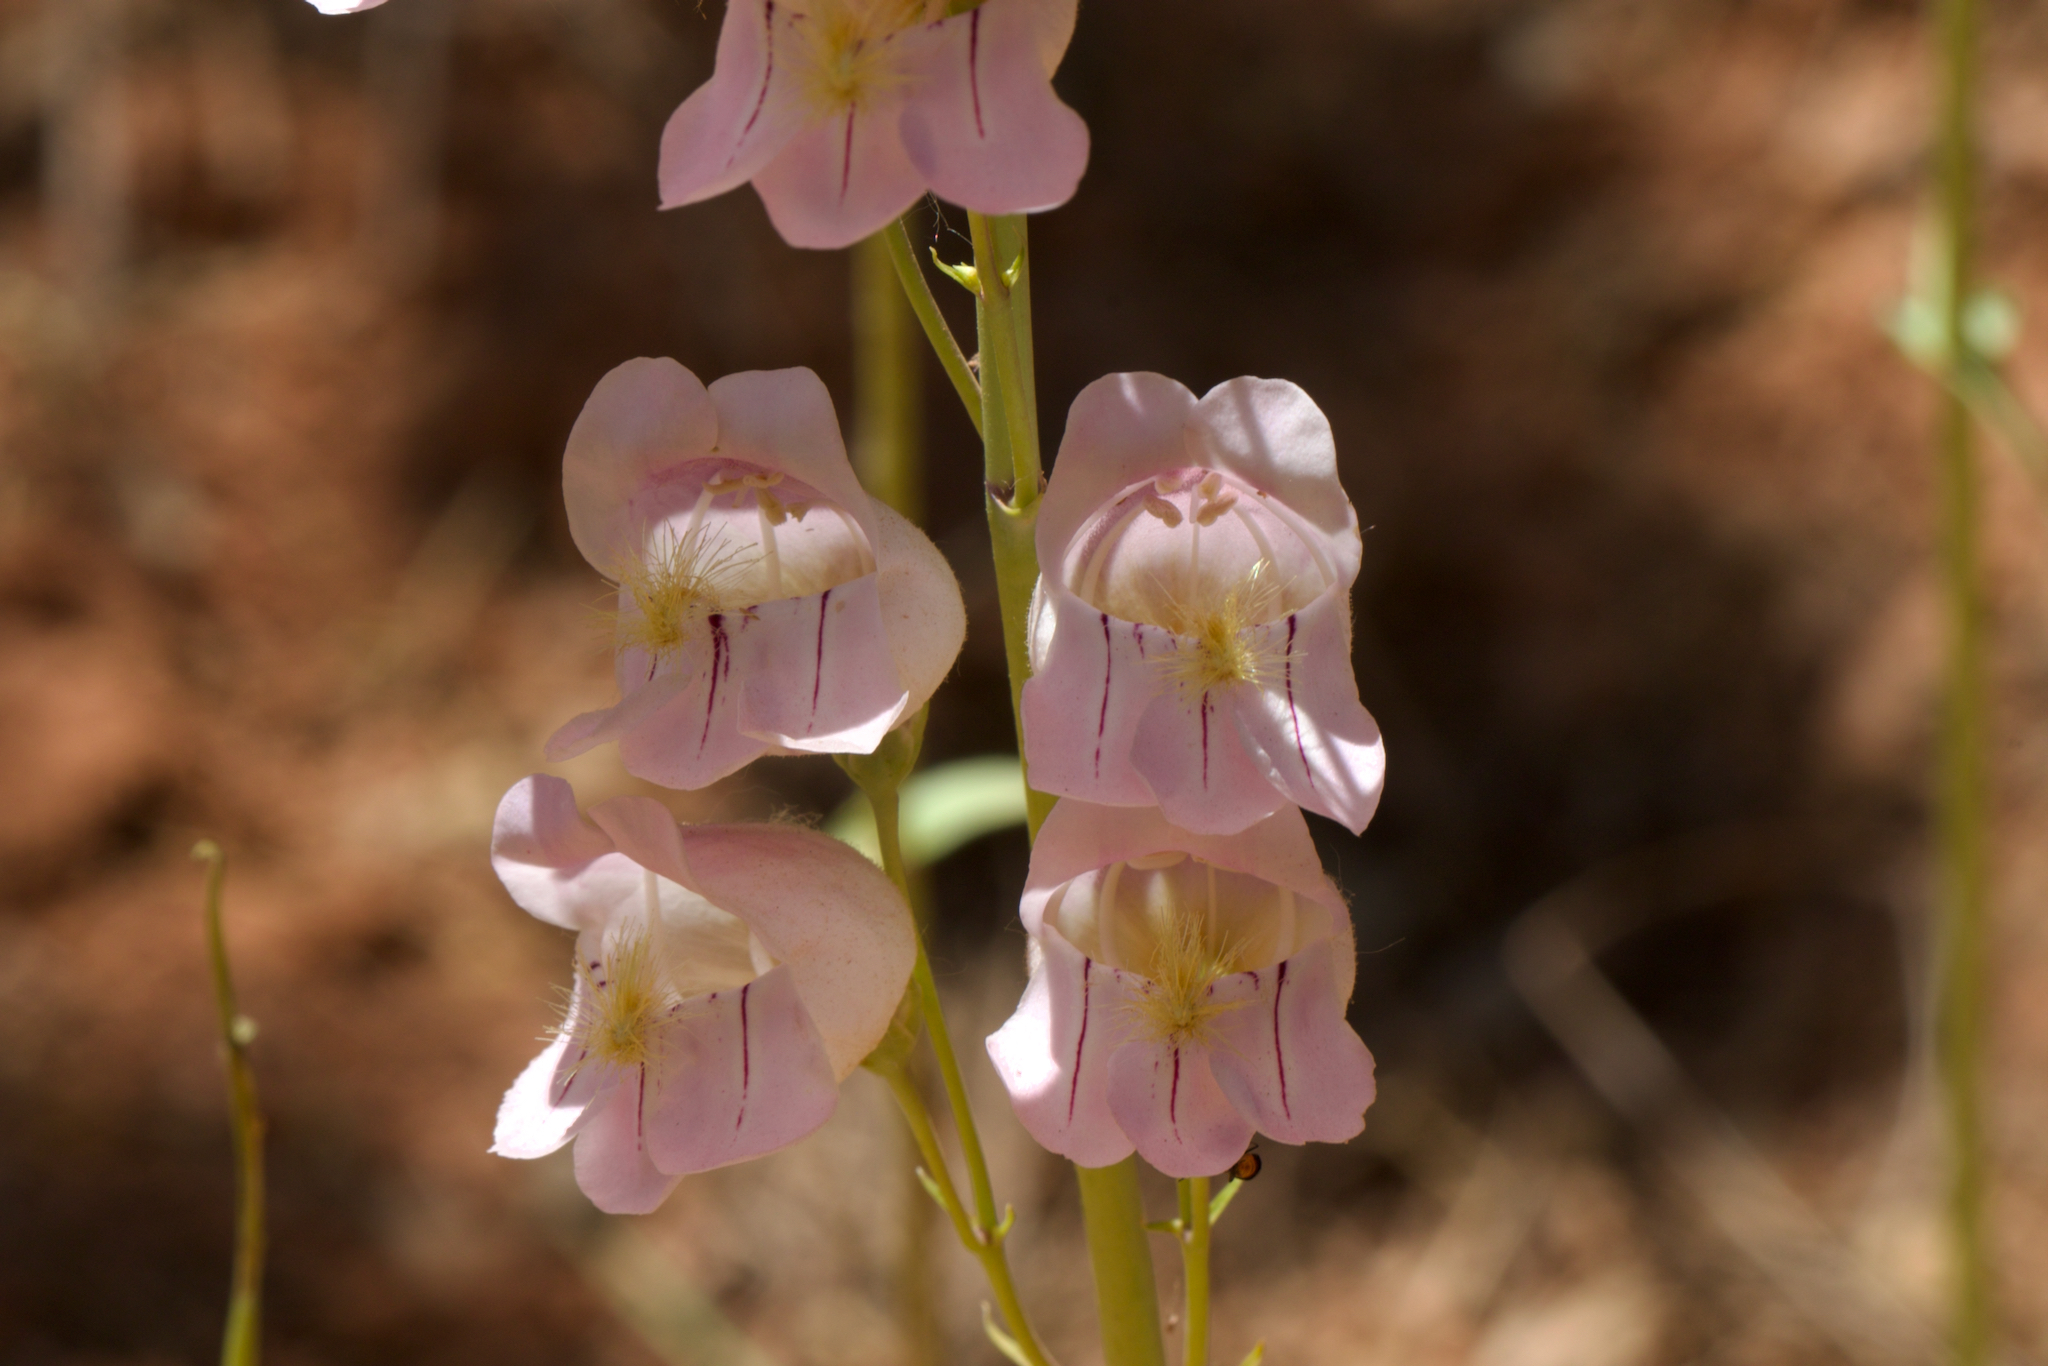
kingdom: Plantae
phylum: Tracheophyta
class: Magnoliopsida
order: Lamiales
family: Plantaginaceae
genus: Penstemon
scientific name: Penstemon palmeri
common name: Palmer penstemon
